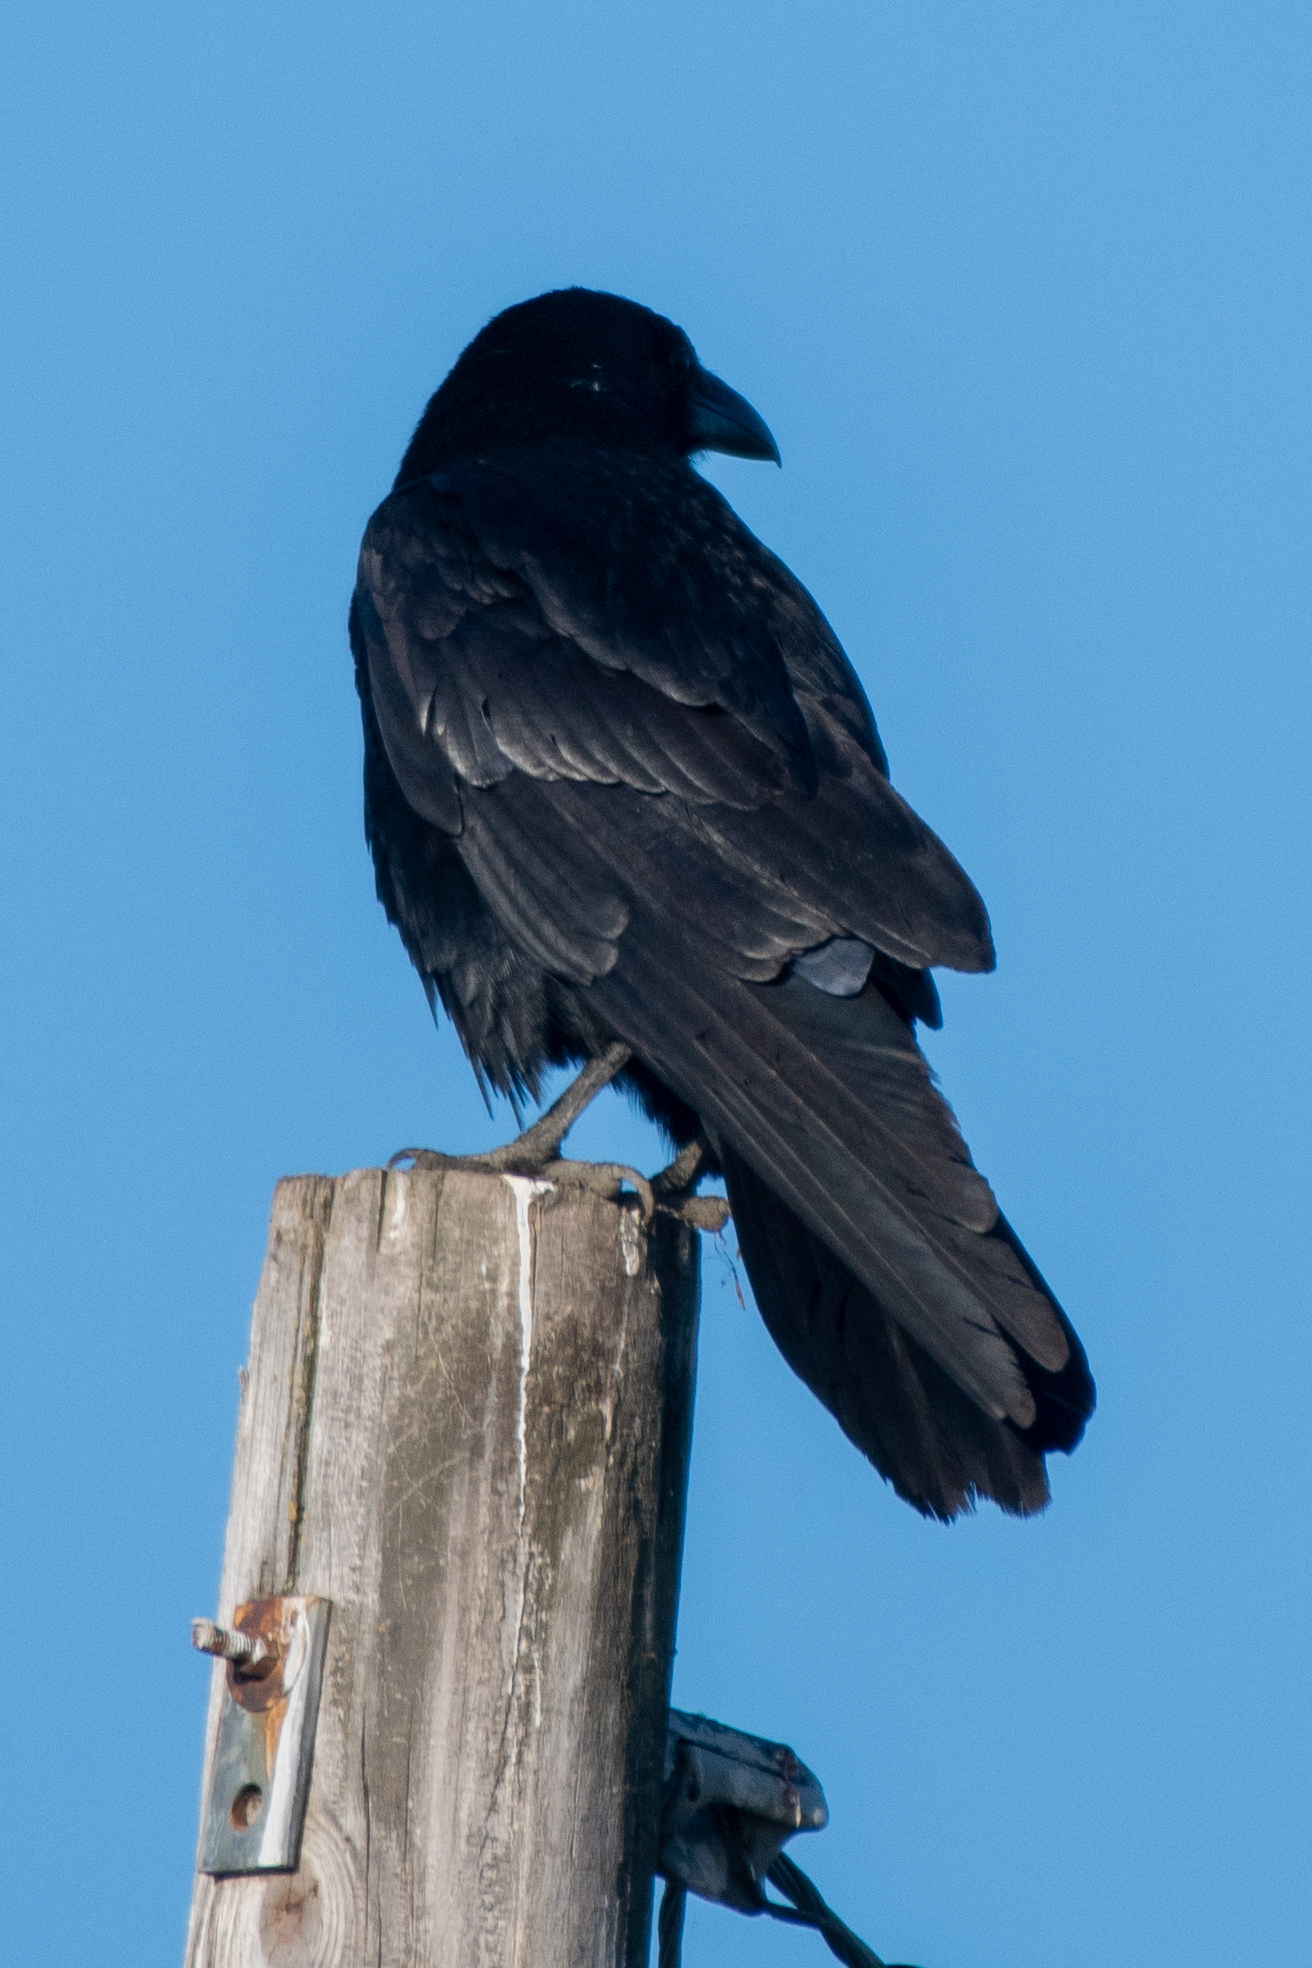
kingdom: Animalia
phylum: Chordata
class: Aves
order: Passeriformes
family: Corvidae
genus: Corvus
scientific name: Corvus corax
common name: Common raven
